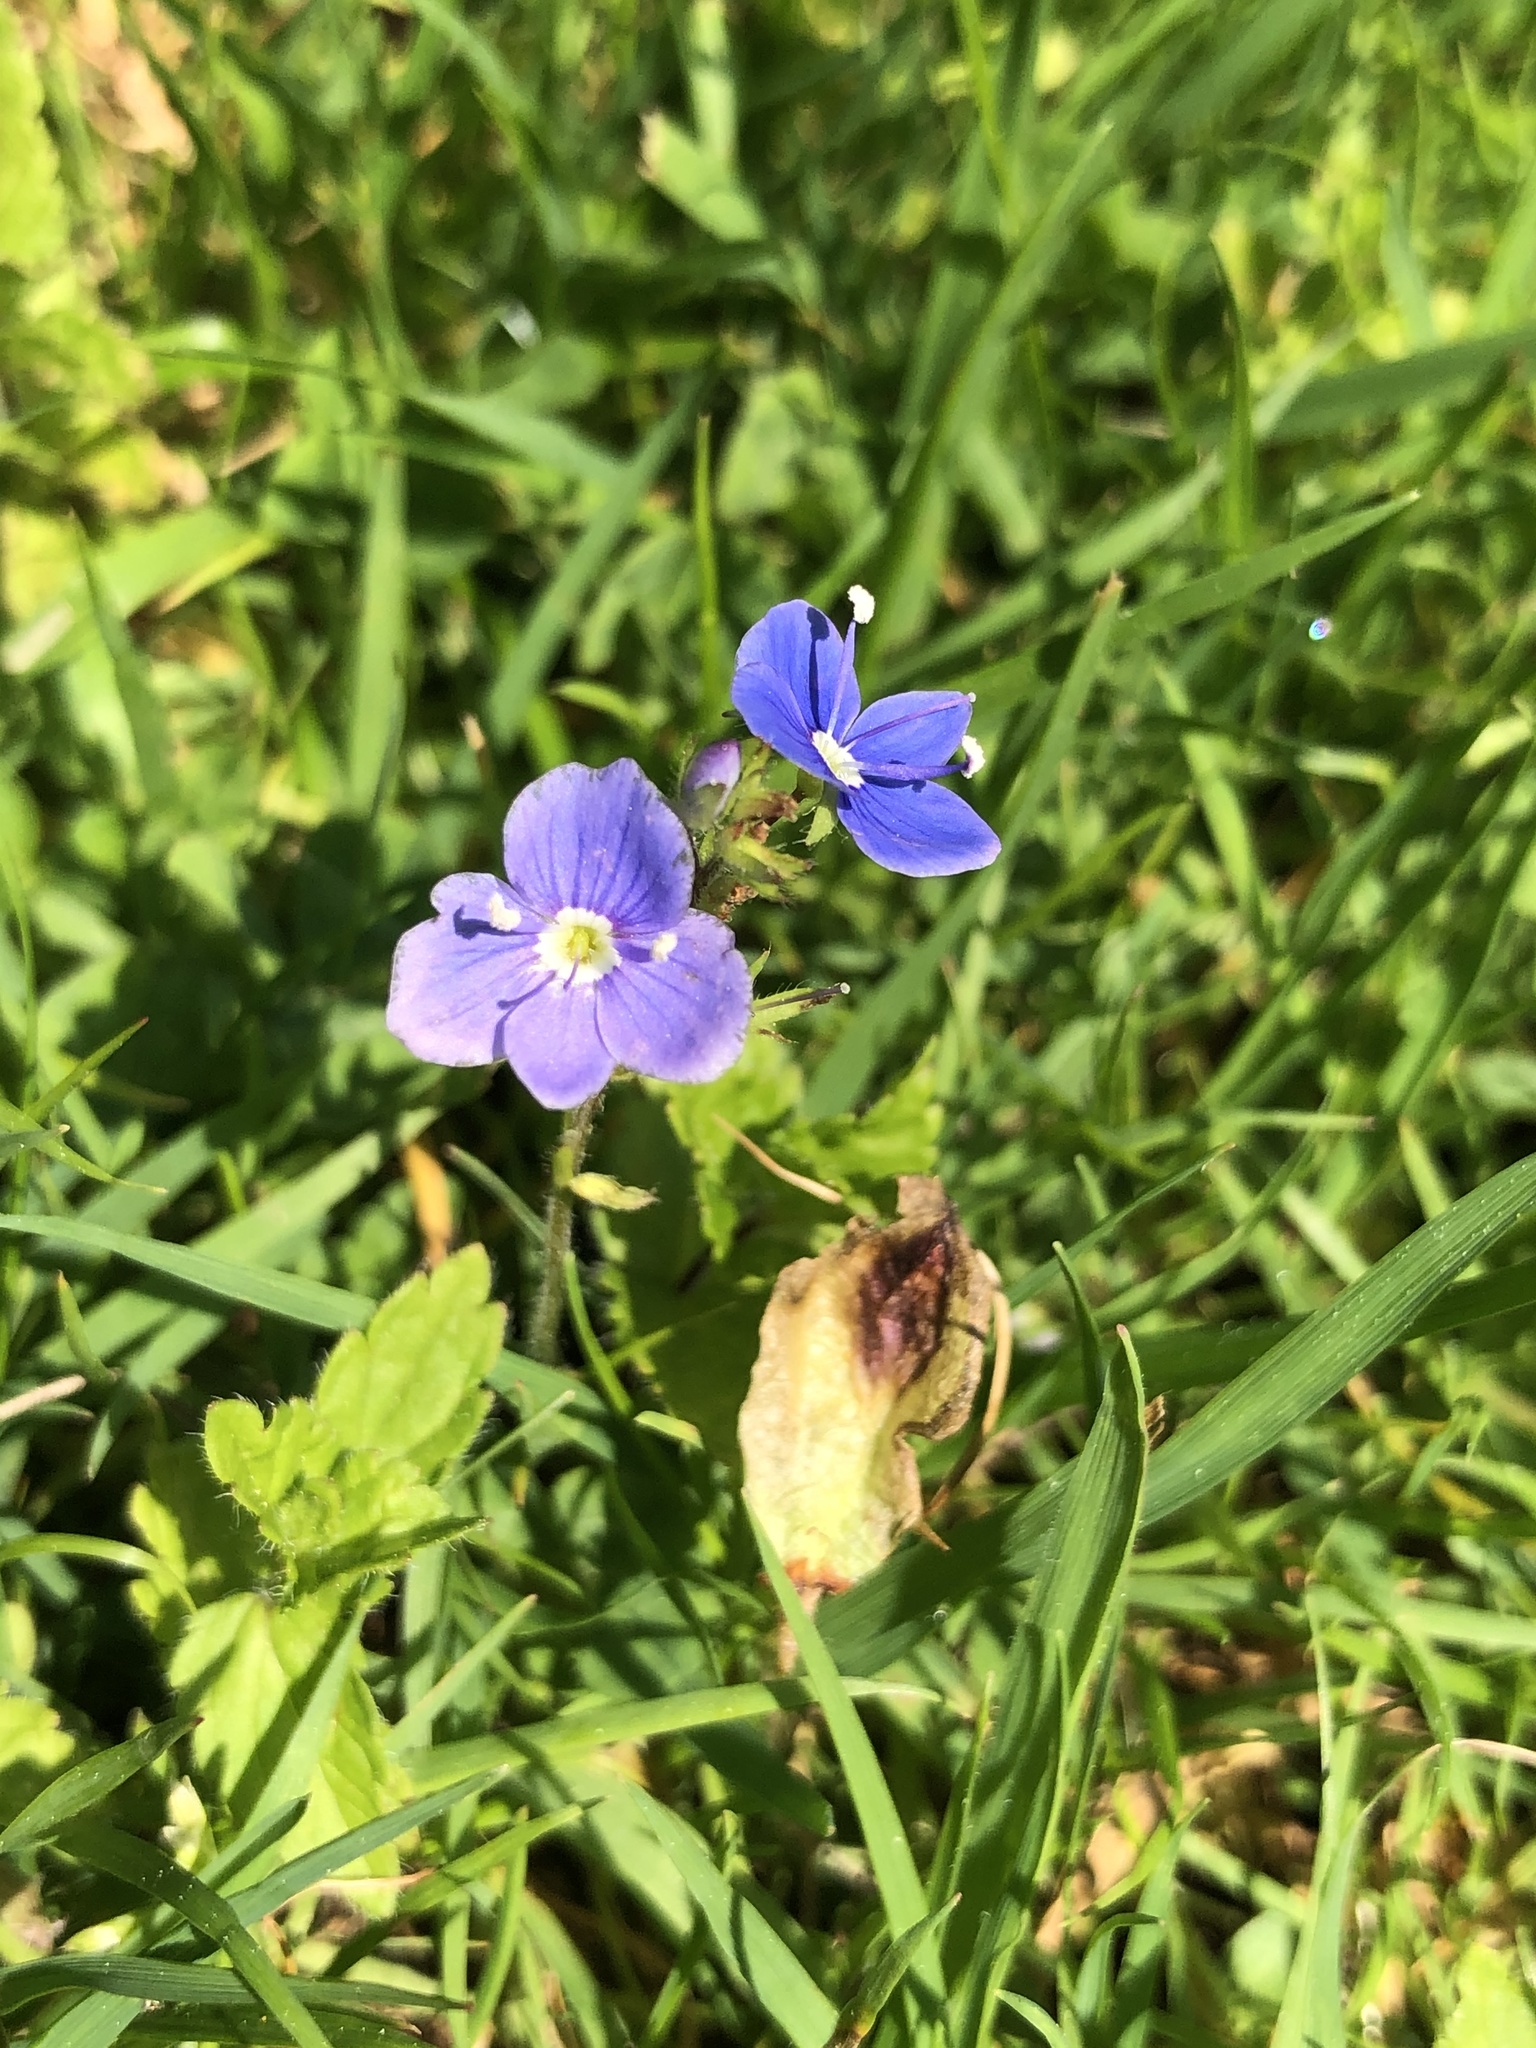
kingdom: Plantae
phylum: Tracheophyta
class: Magnoliopsida
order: Lamiales
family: Plantaginaceae
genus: Veronica
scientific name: Veronica chamaedrys
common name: Germander speedwell
